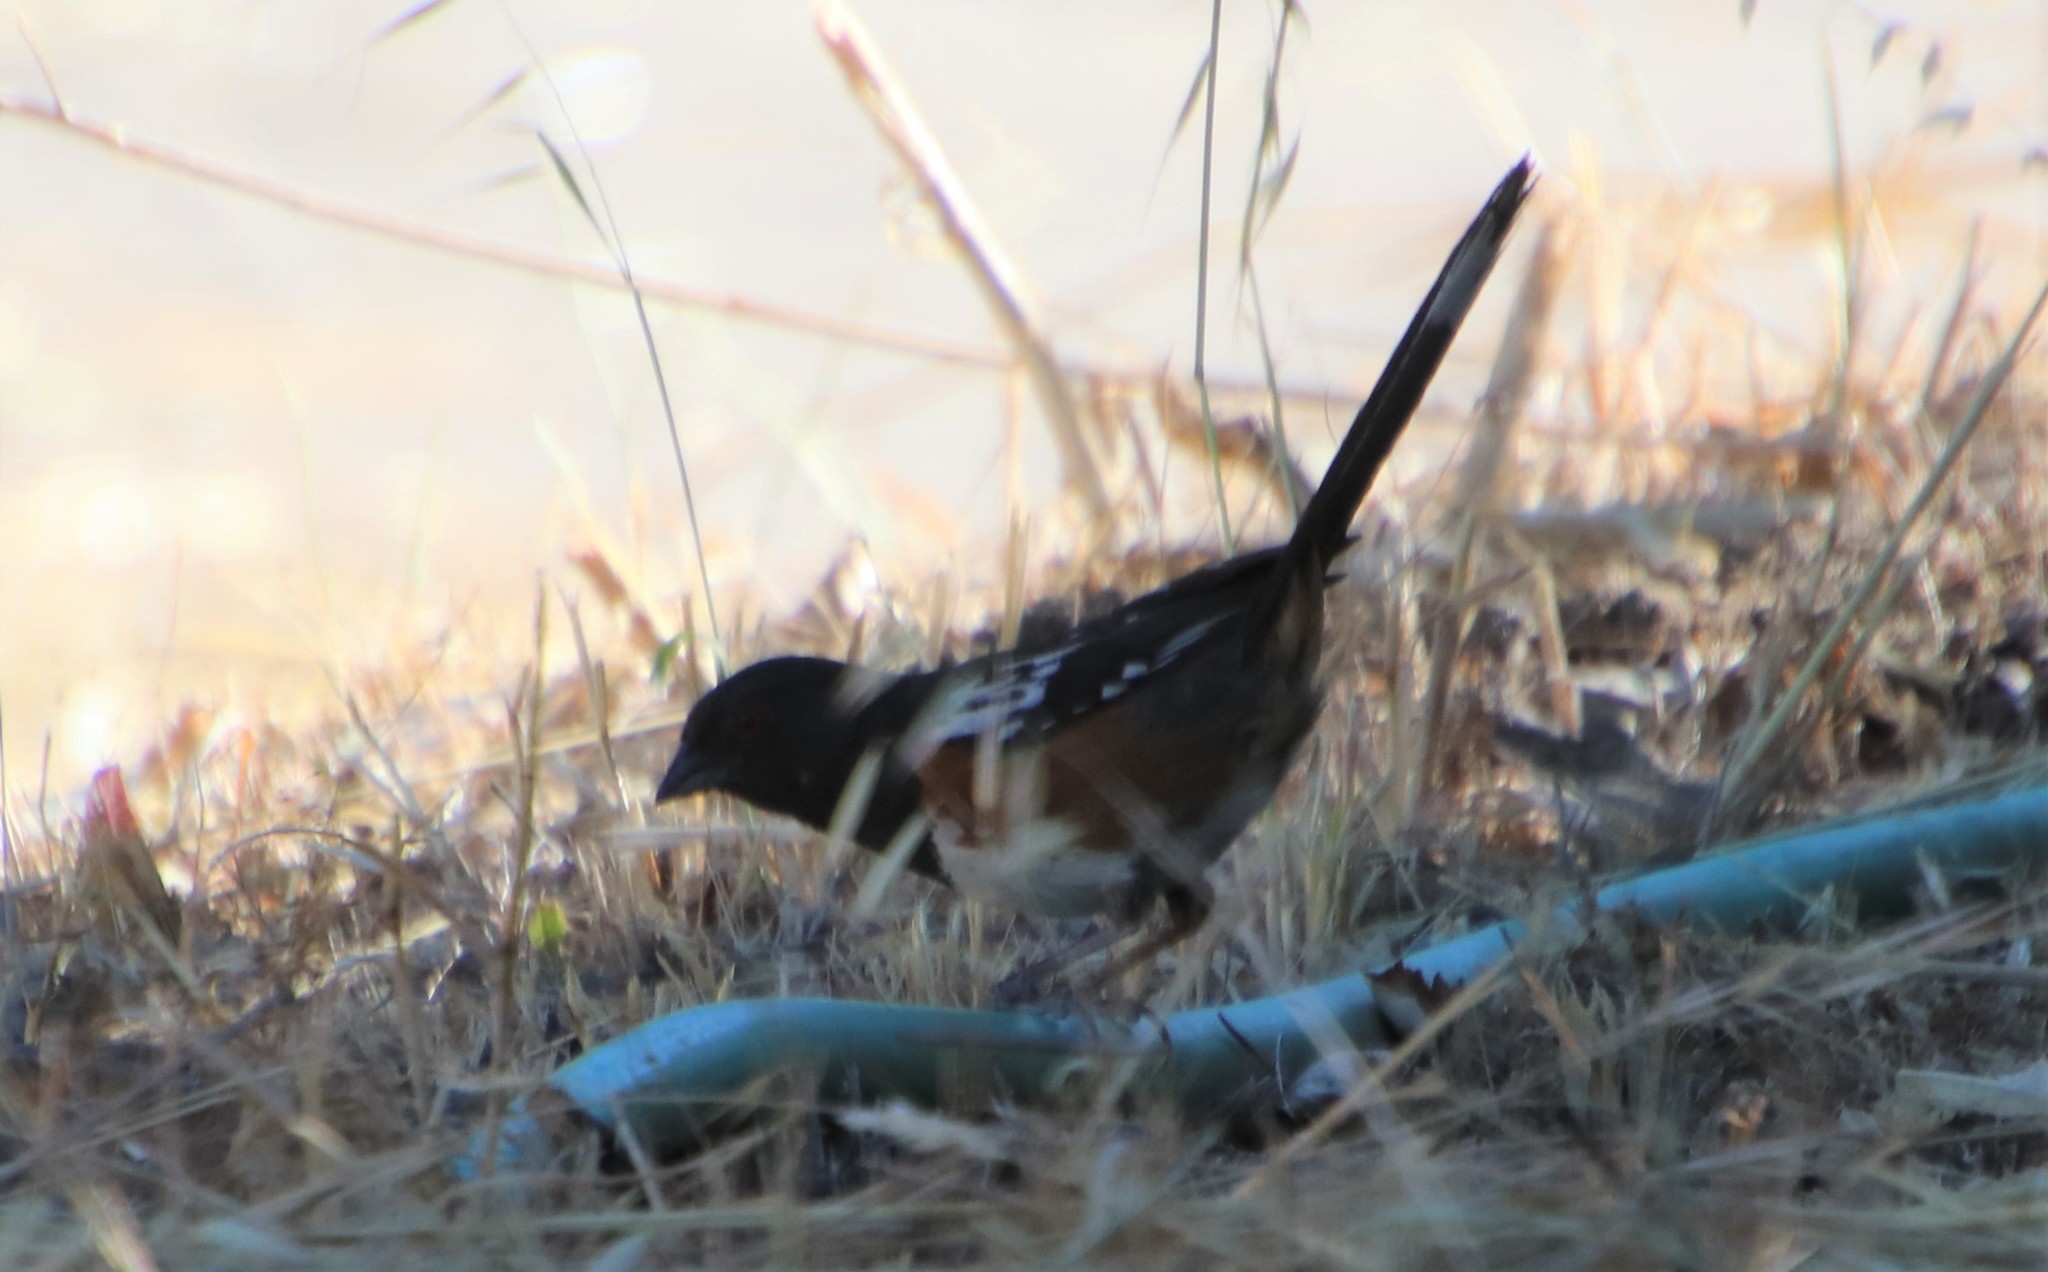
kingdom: Animalia
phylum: Chordata
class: Aves
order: Passeriformes
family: Passerellidae
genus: Pipilo
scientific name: Pipilo maculatus
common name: Spotted towhee
